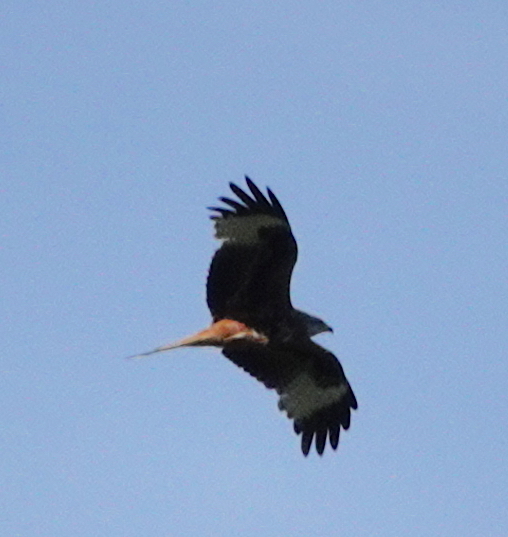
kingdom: Animalia
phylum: Chordata
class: Aves
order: Accipitriformes
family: Accipitridae
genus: Milvus
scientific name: Milvus milvus
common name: Red kite
